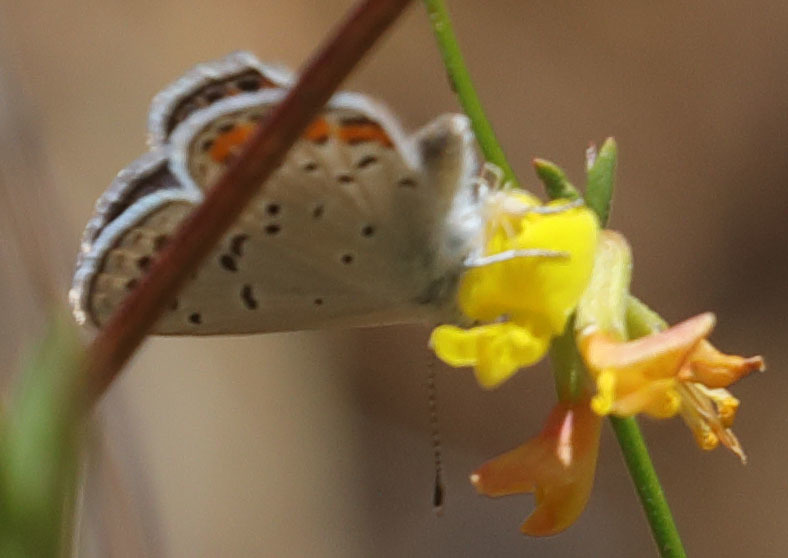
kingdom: Animalia
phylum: Arthropoda
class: Insecta
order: Lepidoptera
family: Lycaenidae
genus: Icaricia
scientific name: Icaricia acmon
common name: Acmon blue
